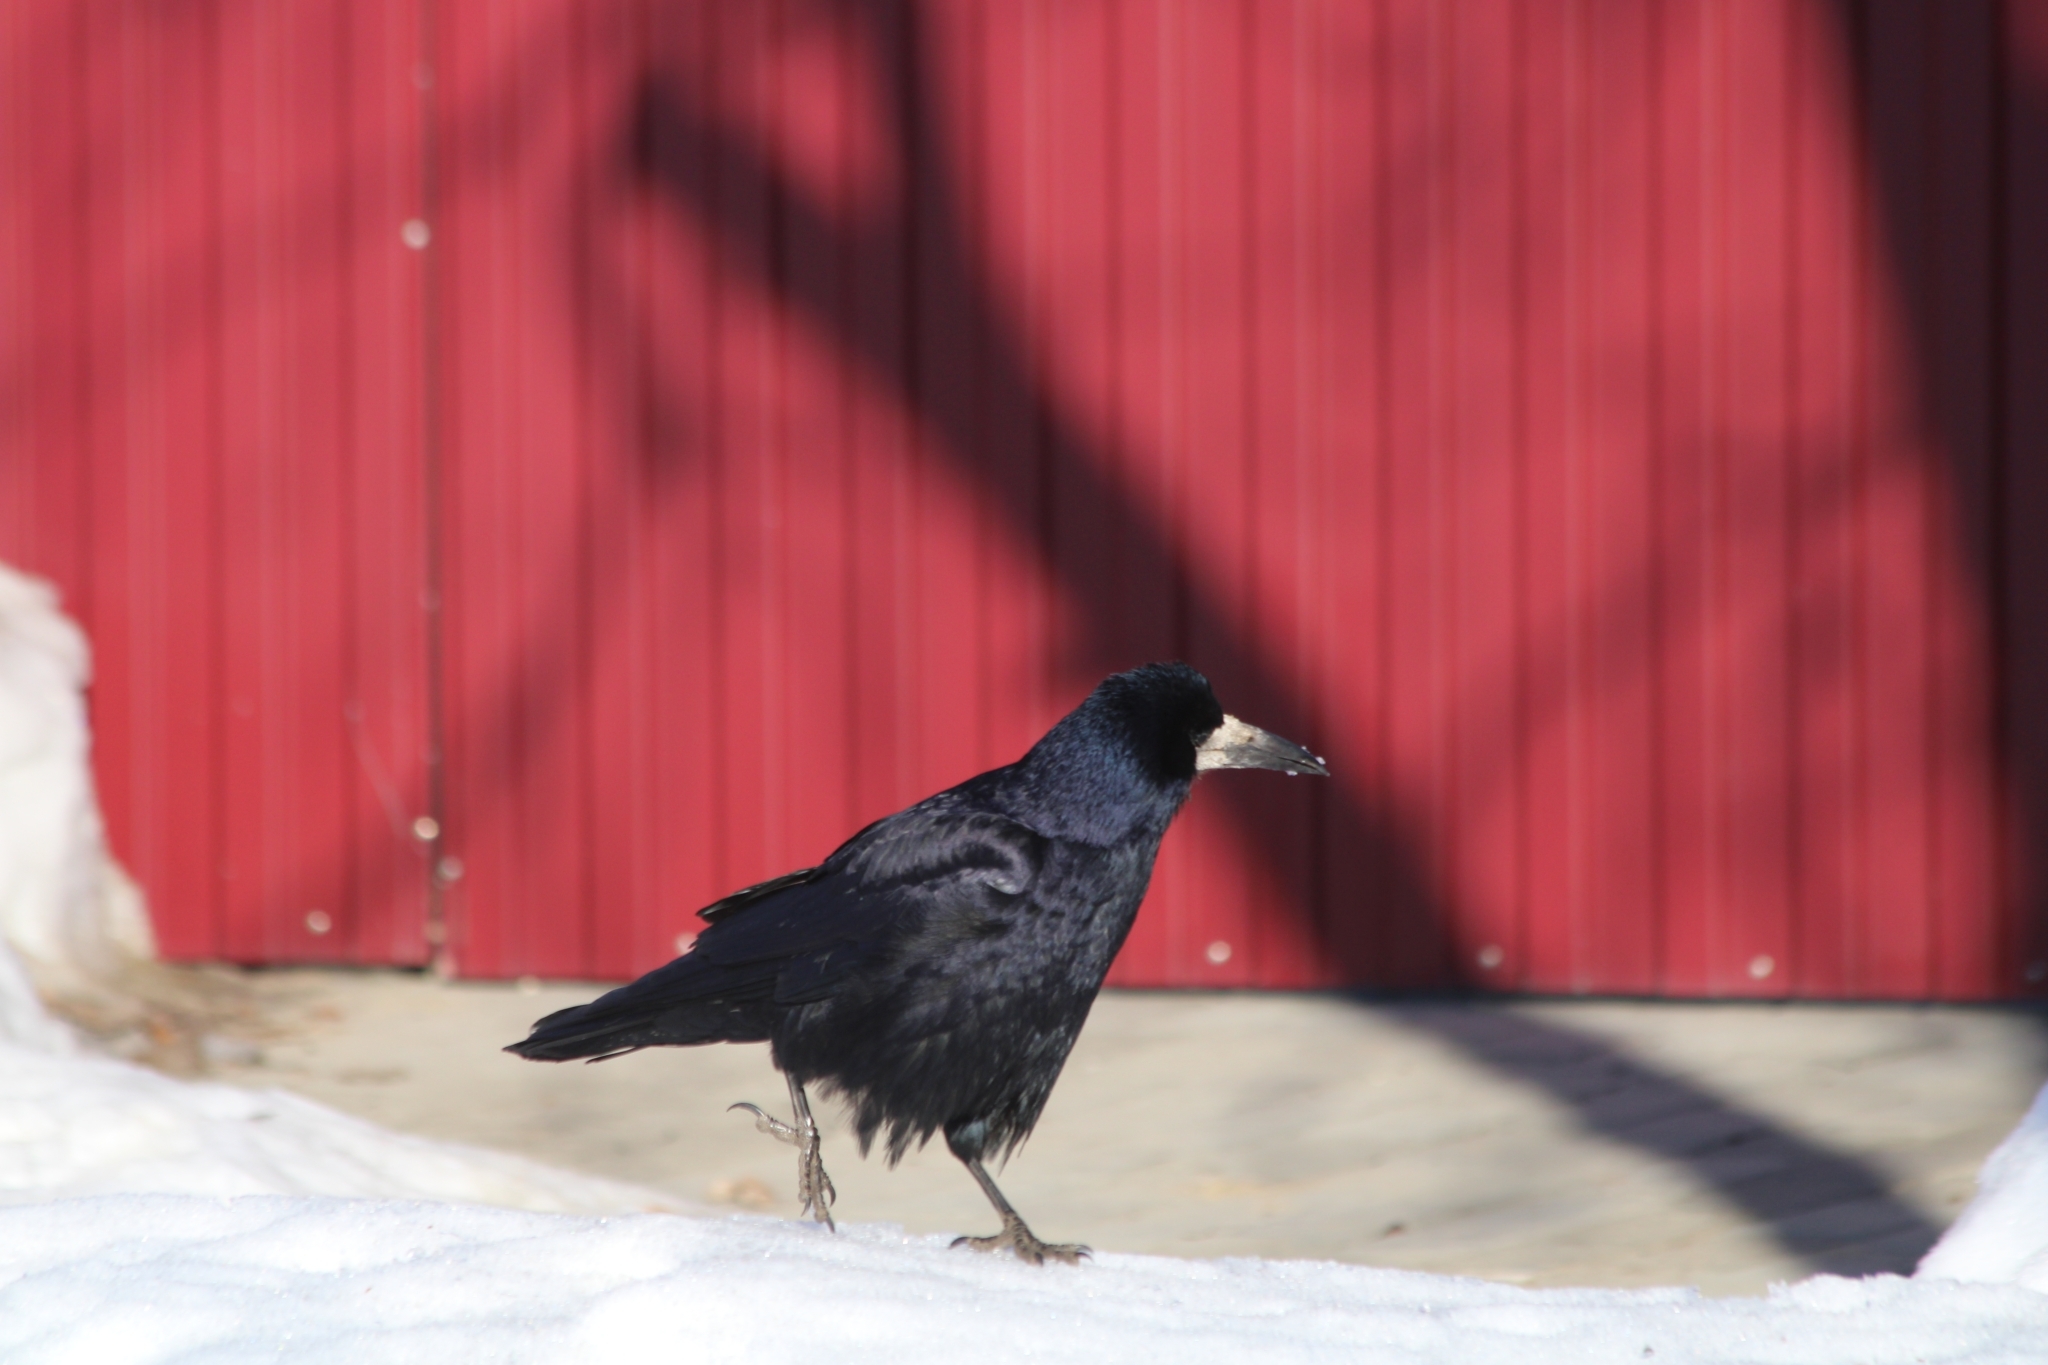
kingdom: Animalia
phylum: Chordata
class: Aves
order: Passeriformes
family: Corvidae
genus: Corvus
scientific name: Corvus frugilegus
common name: Rook
